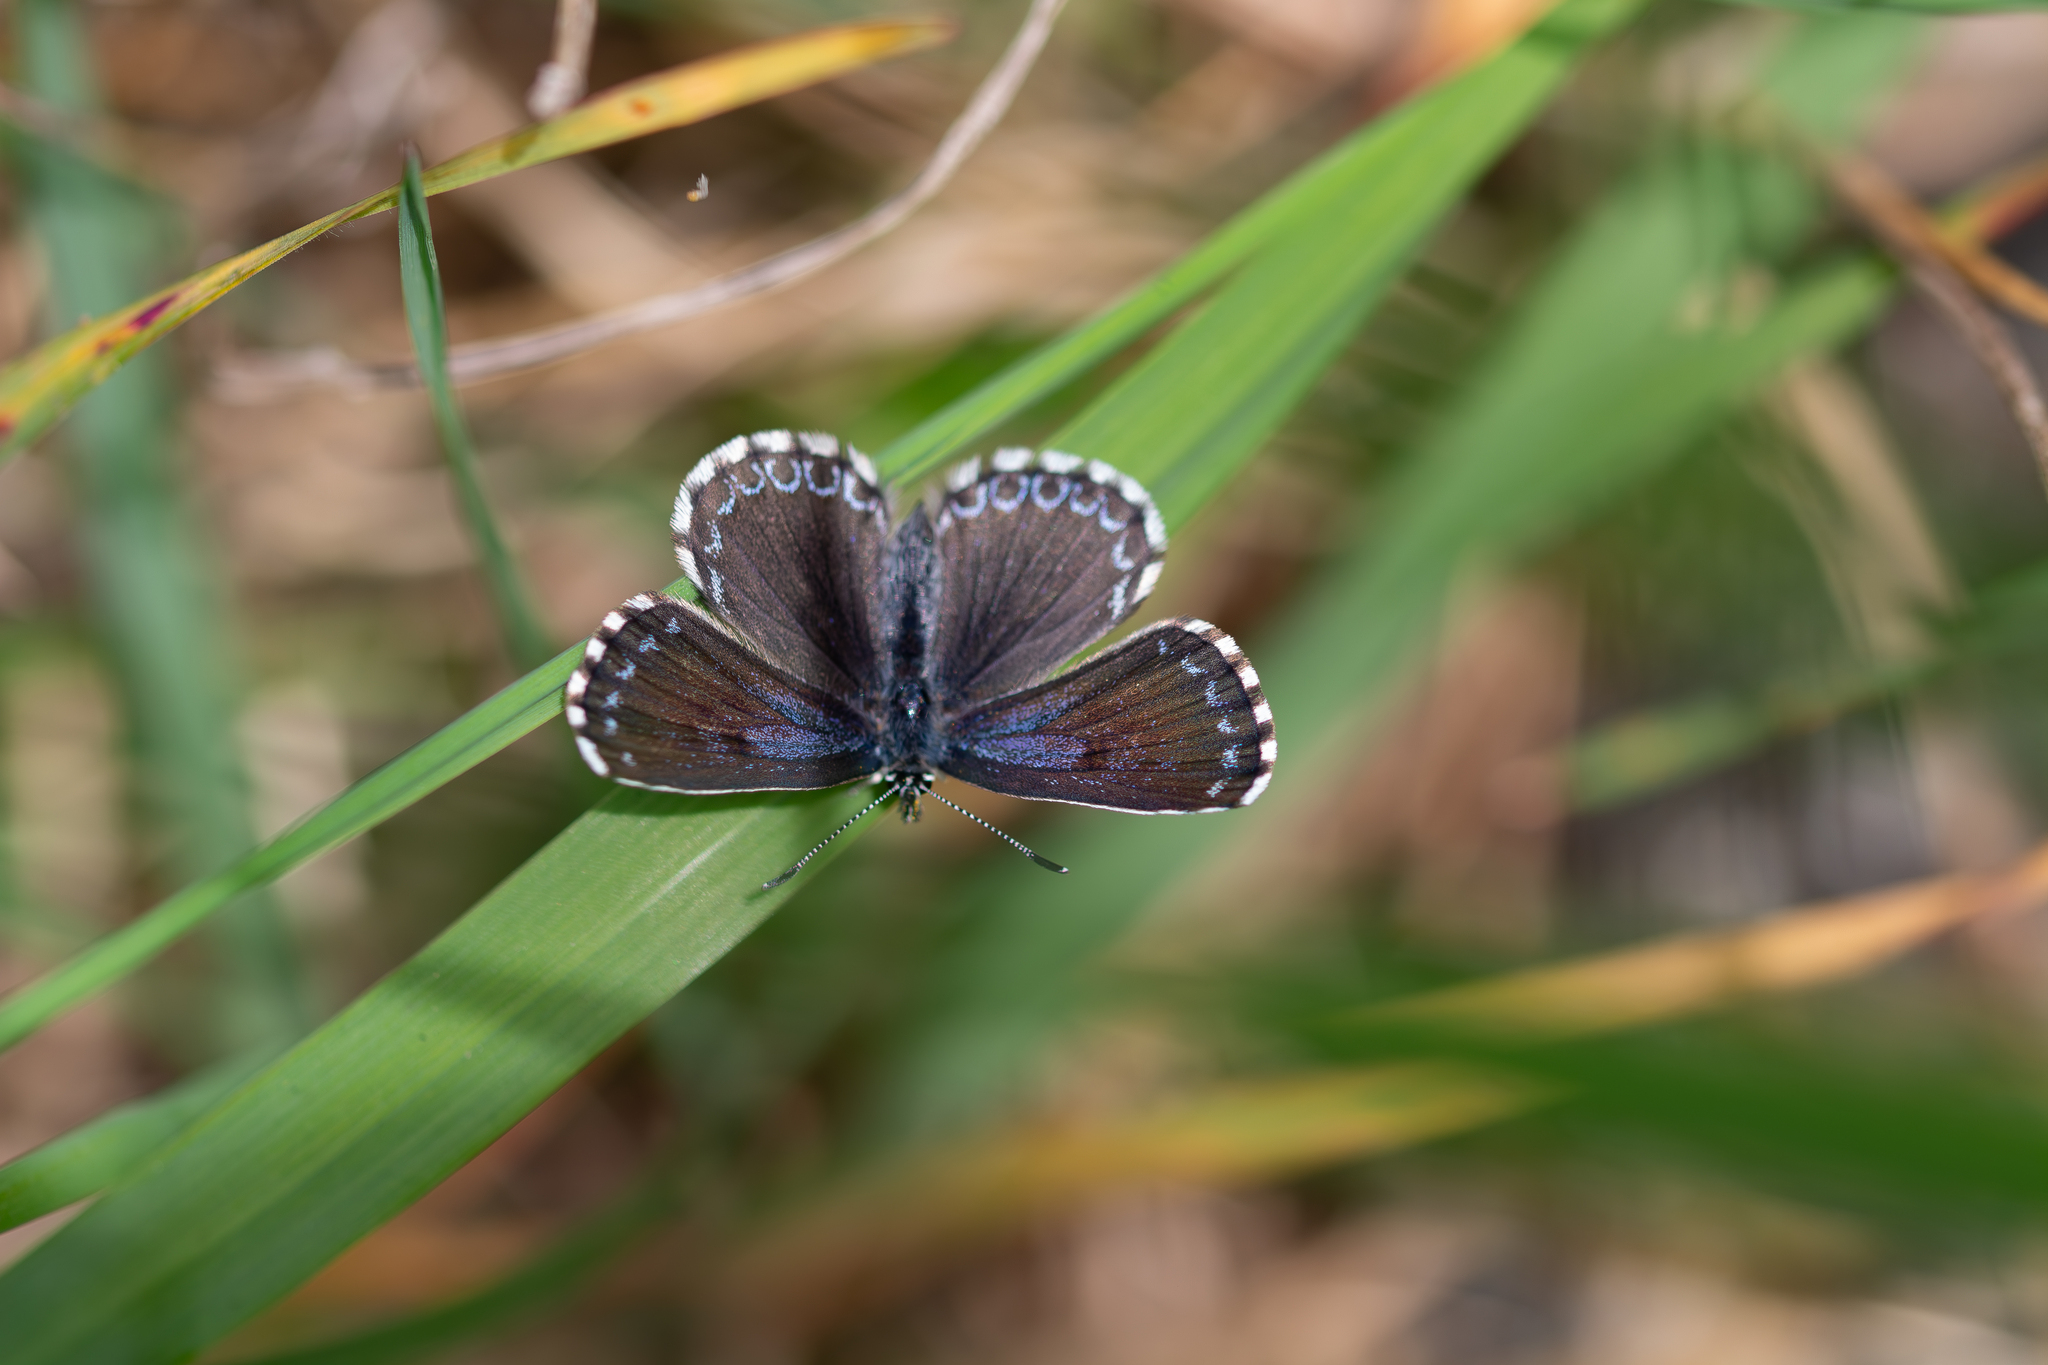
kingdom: Animalia
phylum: Arthropoda
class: Insecta
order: Lepidoptera
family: Lycaenidae
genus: Scolitantides
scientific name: Scolitantides orion
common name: Chequered blue
